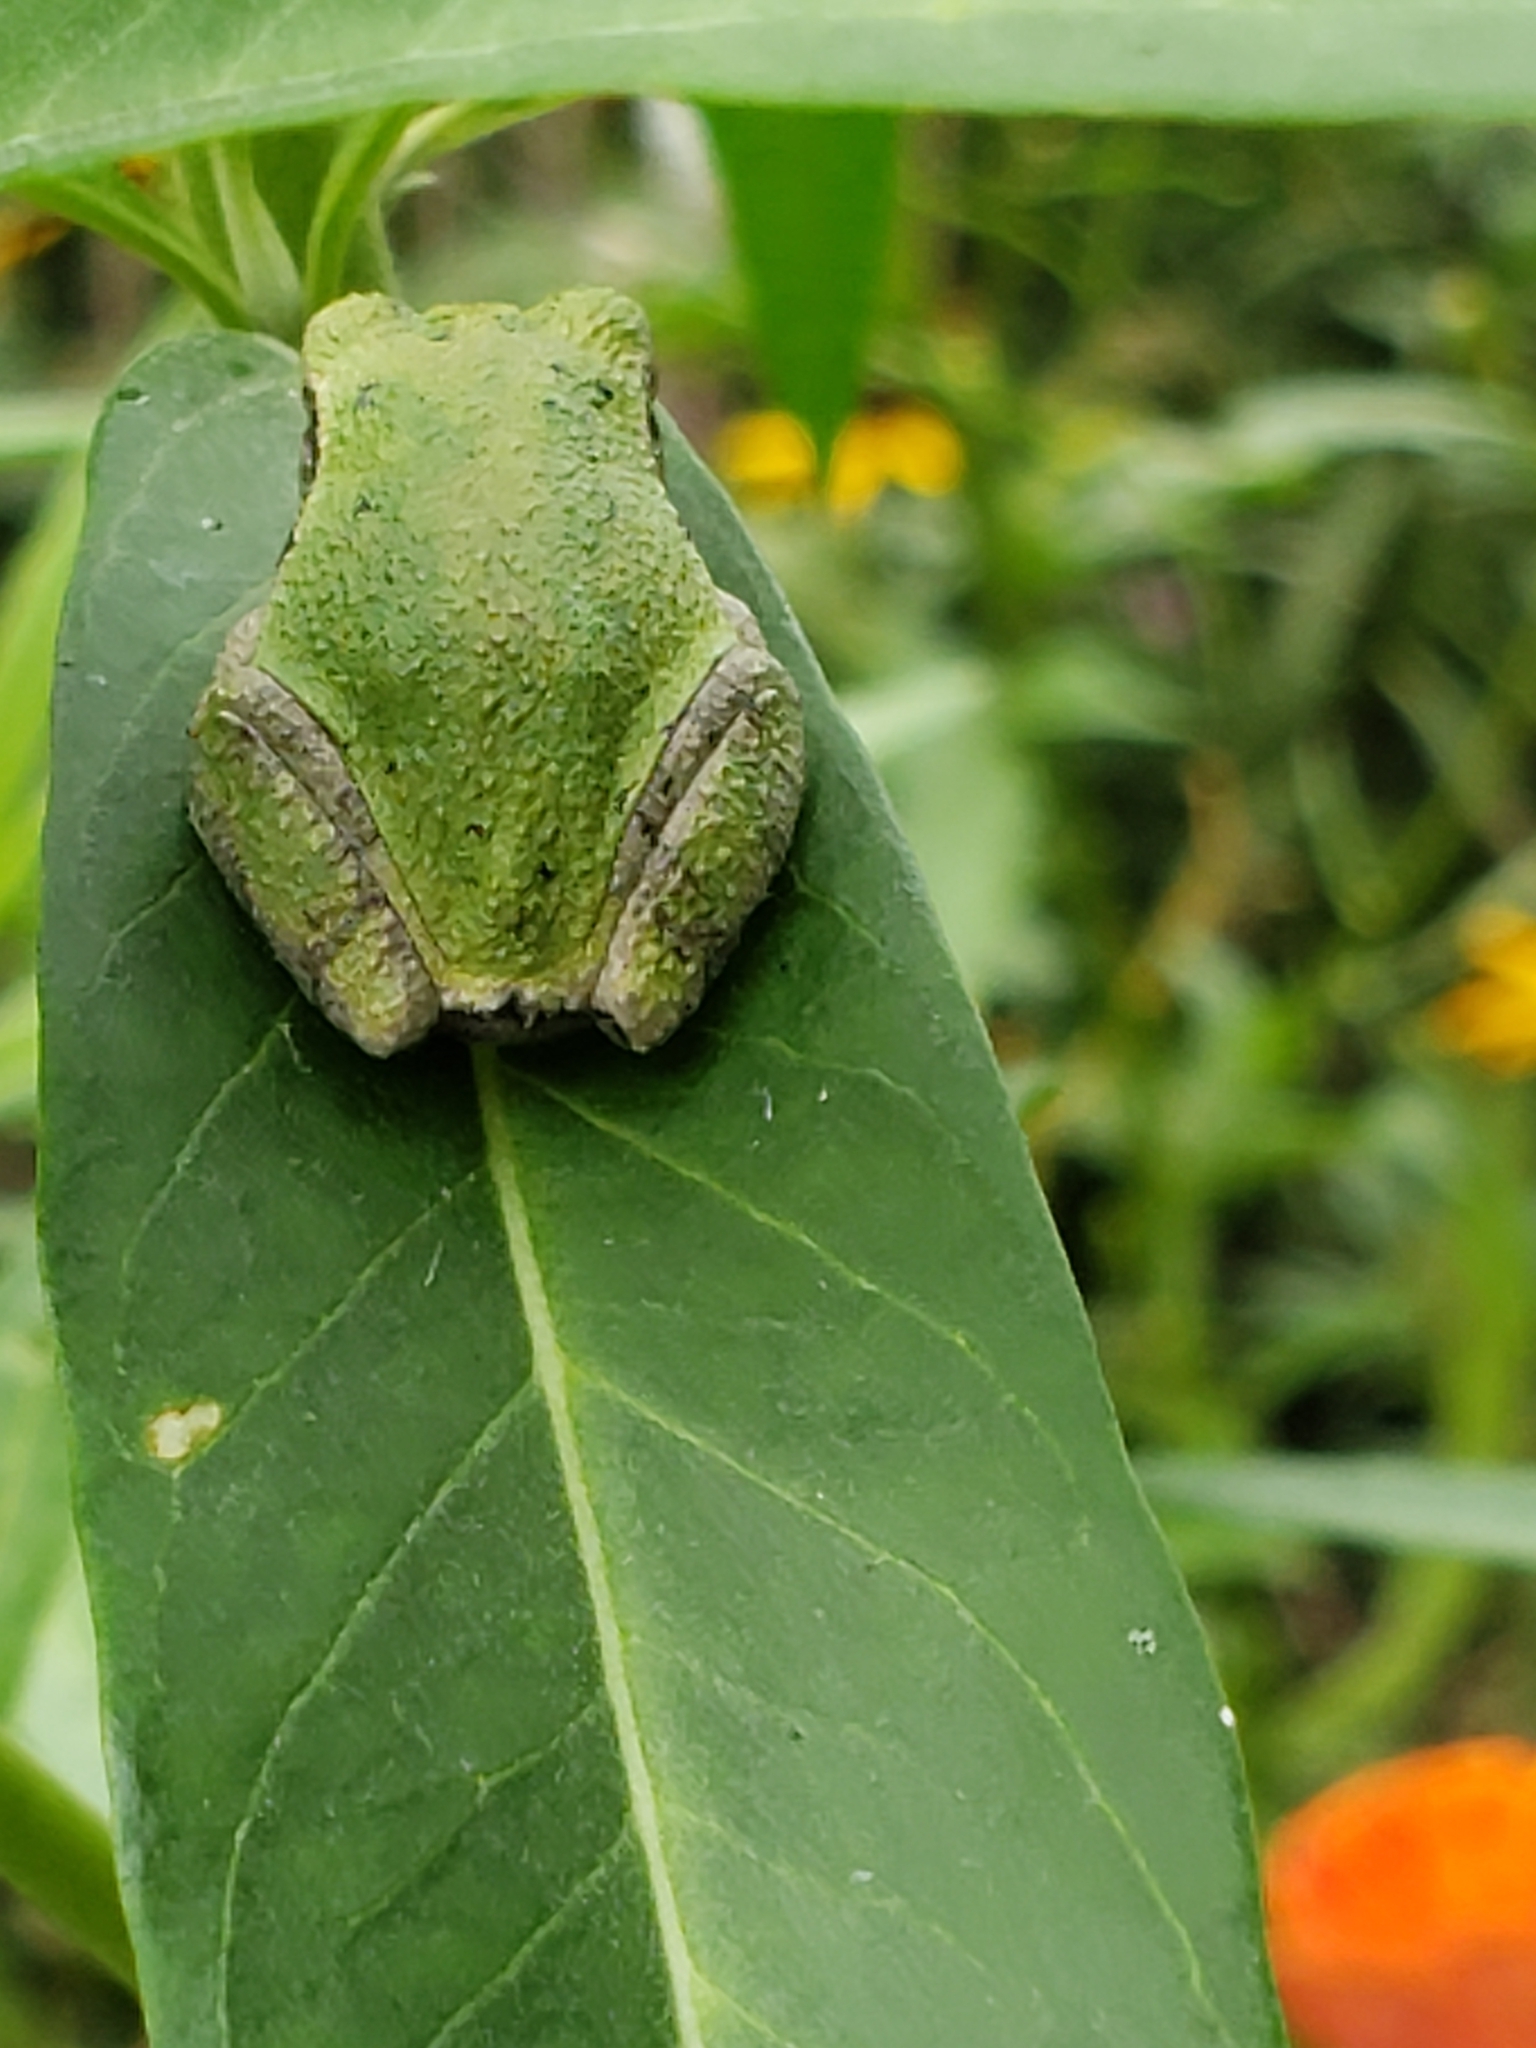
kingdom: Animalia
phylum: Chordata
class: Amphibia
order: Anura
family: Hylidae
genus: Hyla
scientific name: Hyla
